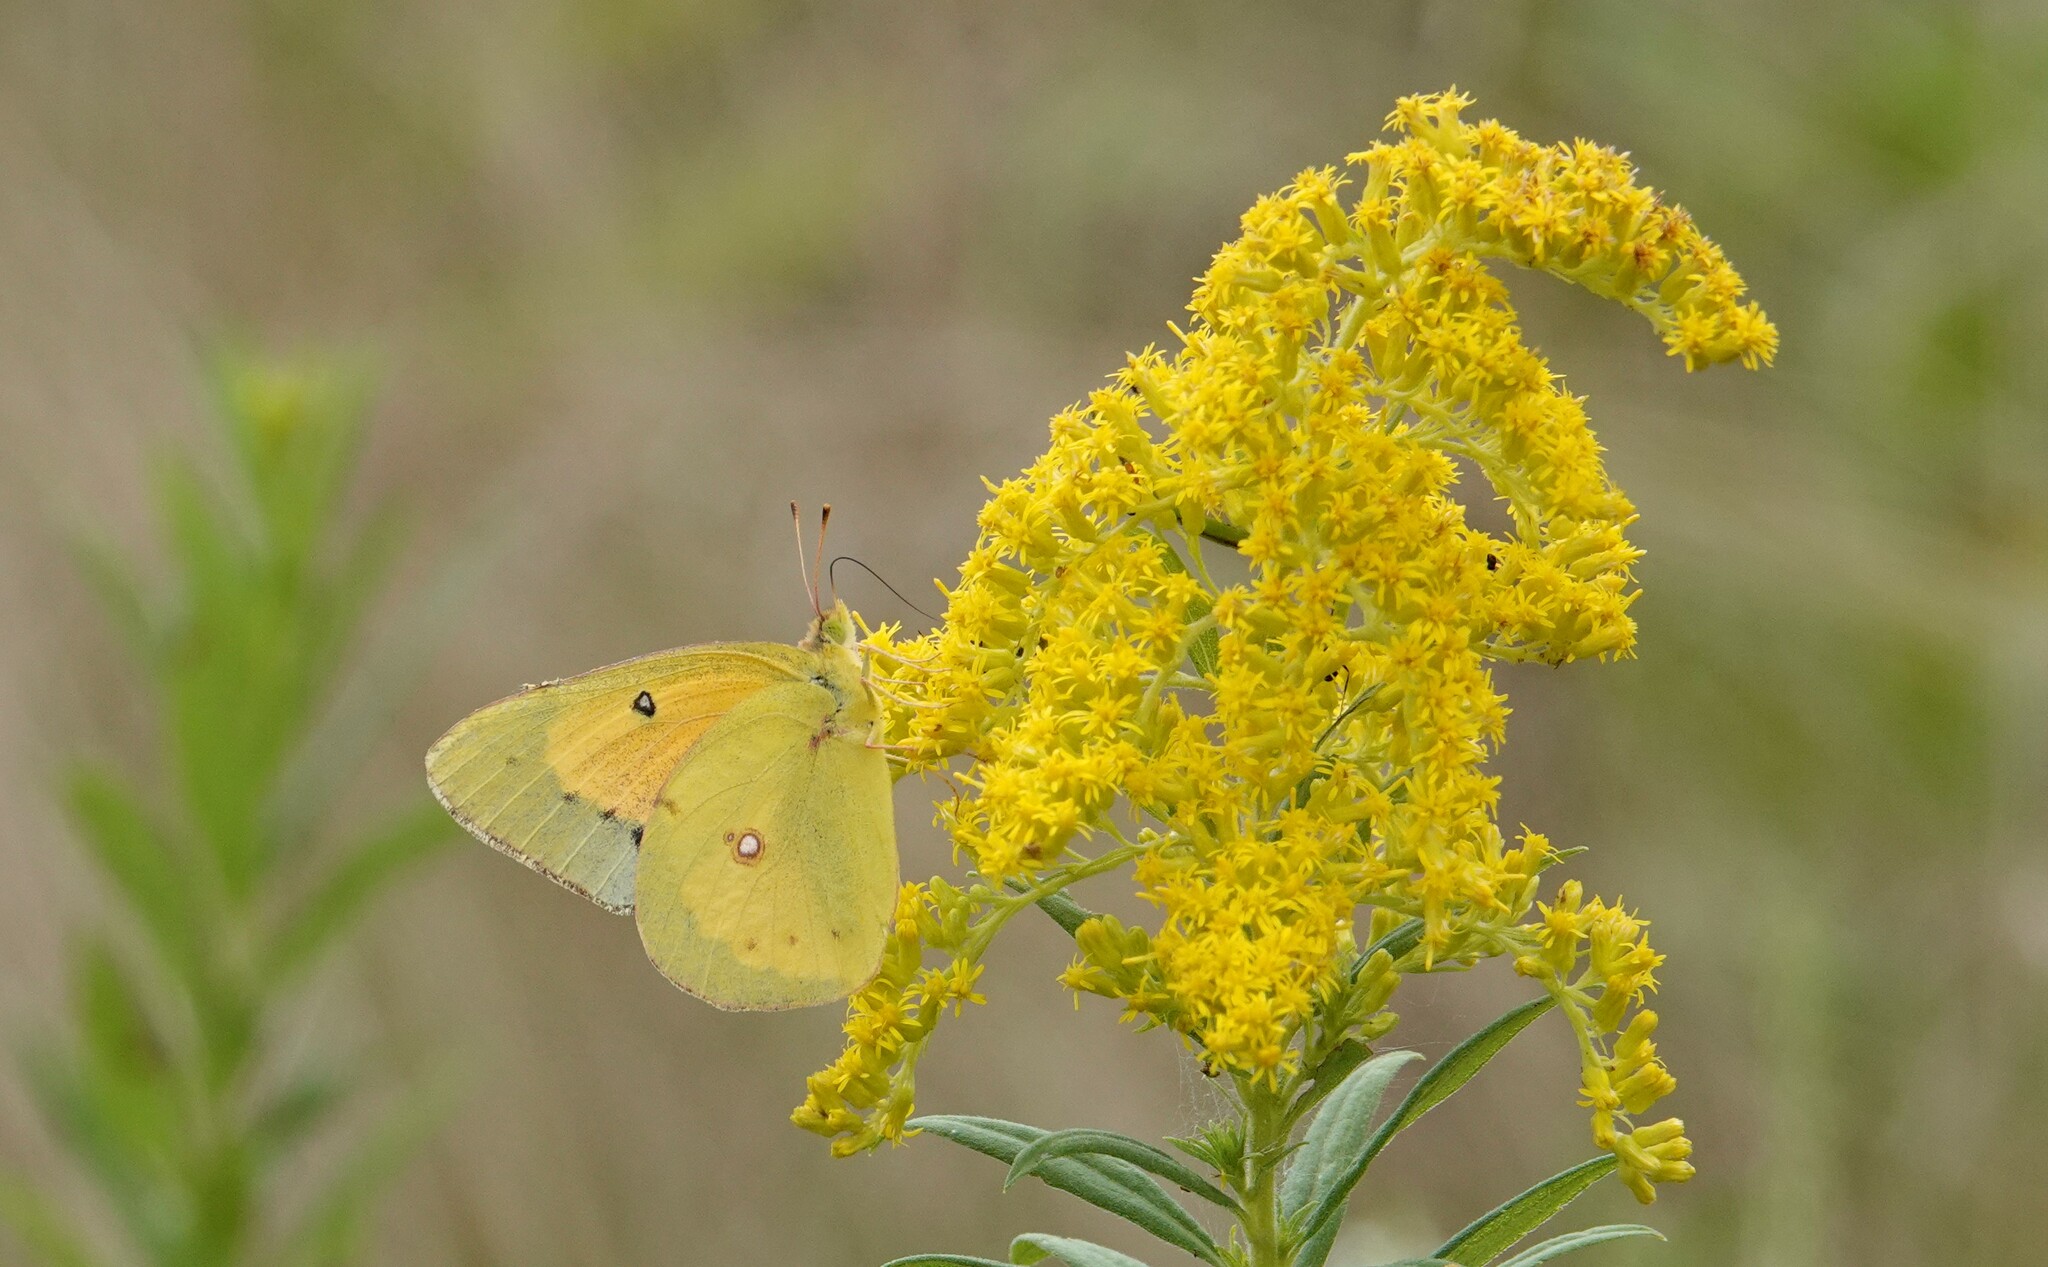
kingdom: Animalia
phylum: Arthropoda
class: Insecta
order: Lepidoptera
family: Pieridae
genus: Colias
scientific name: Colias eurytheme
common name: Alfalfa butterfly
